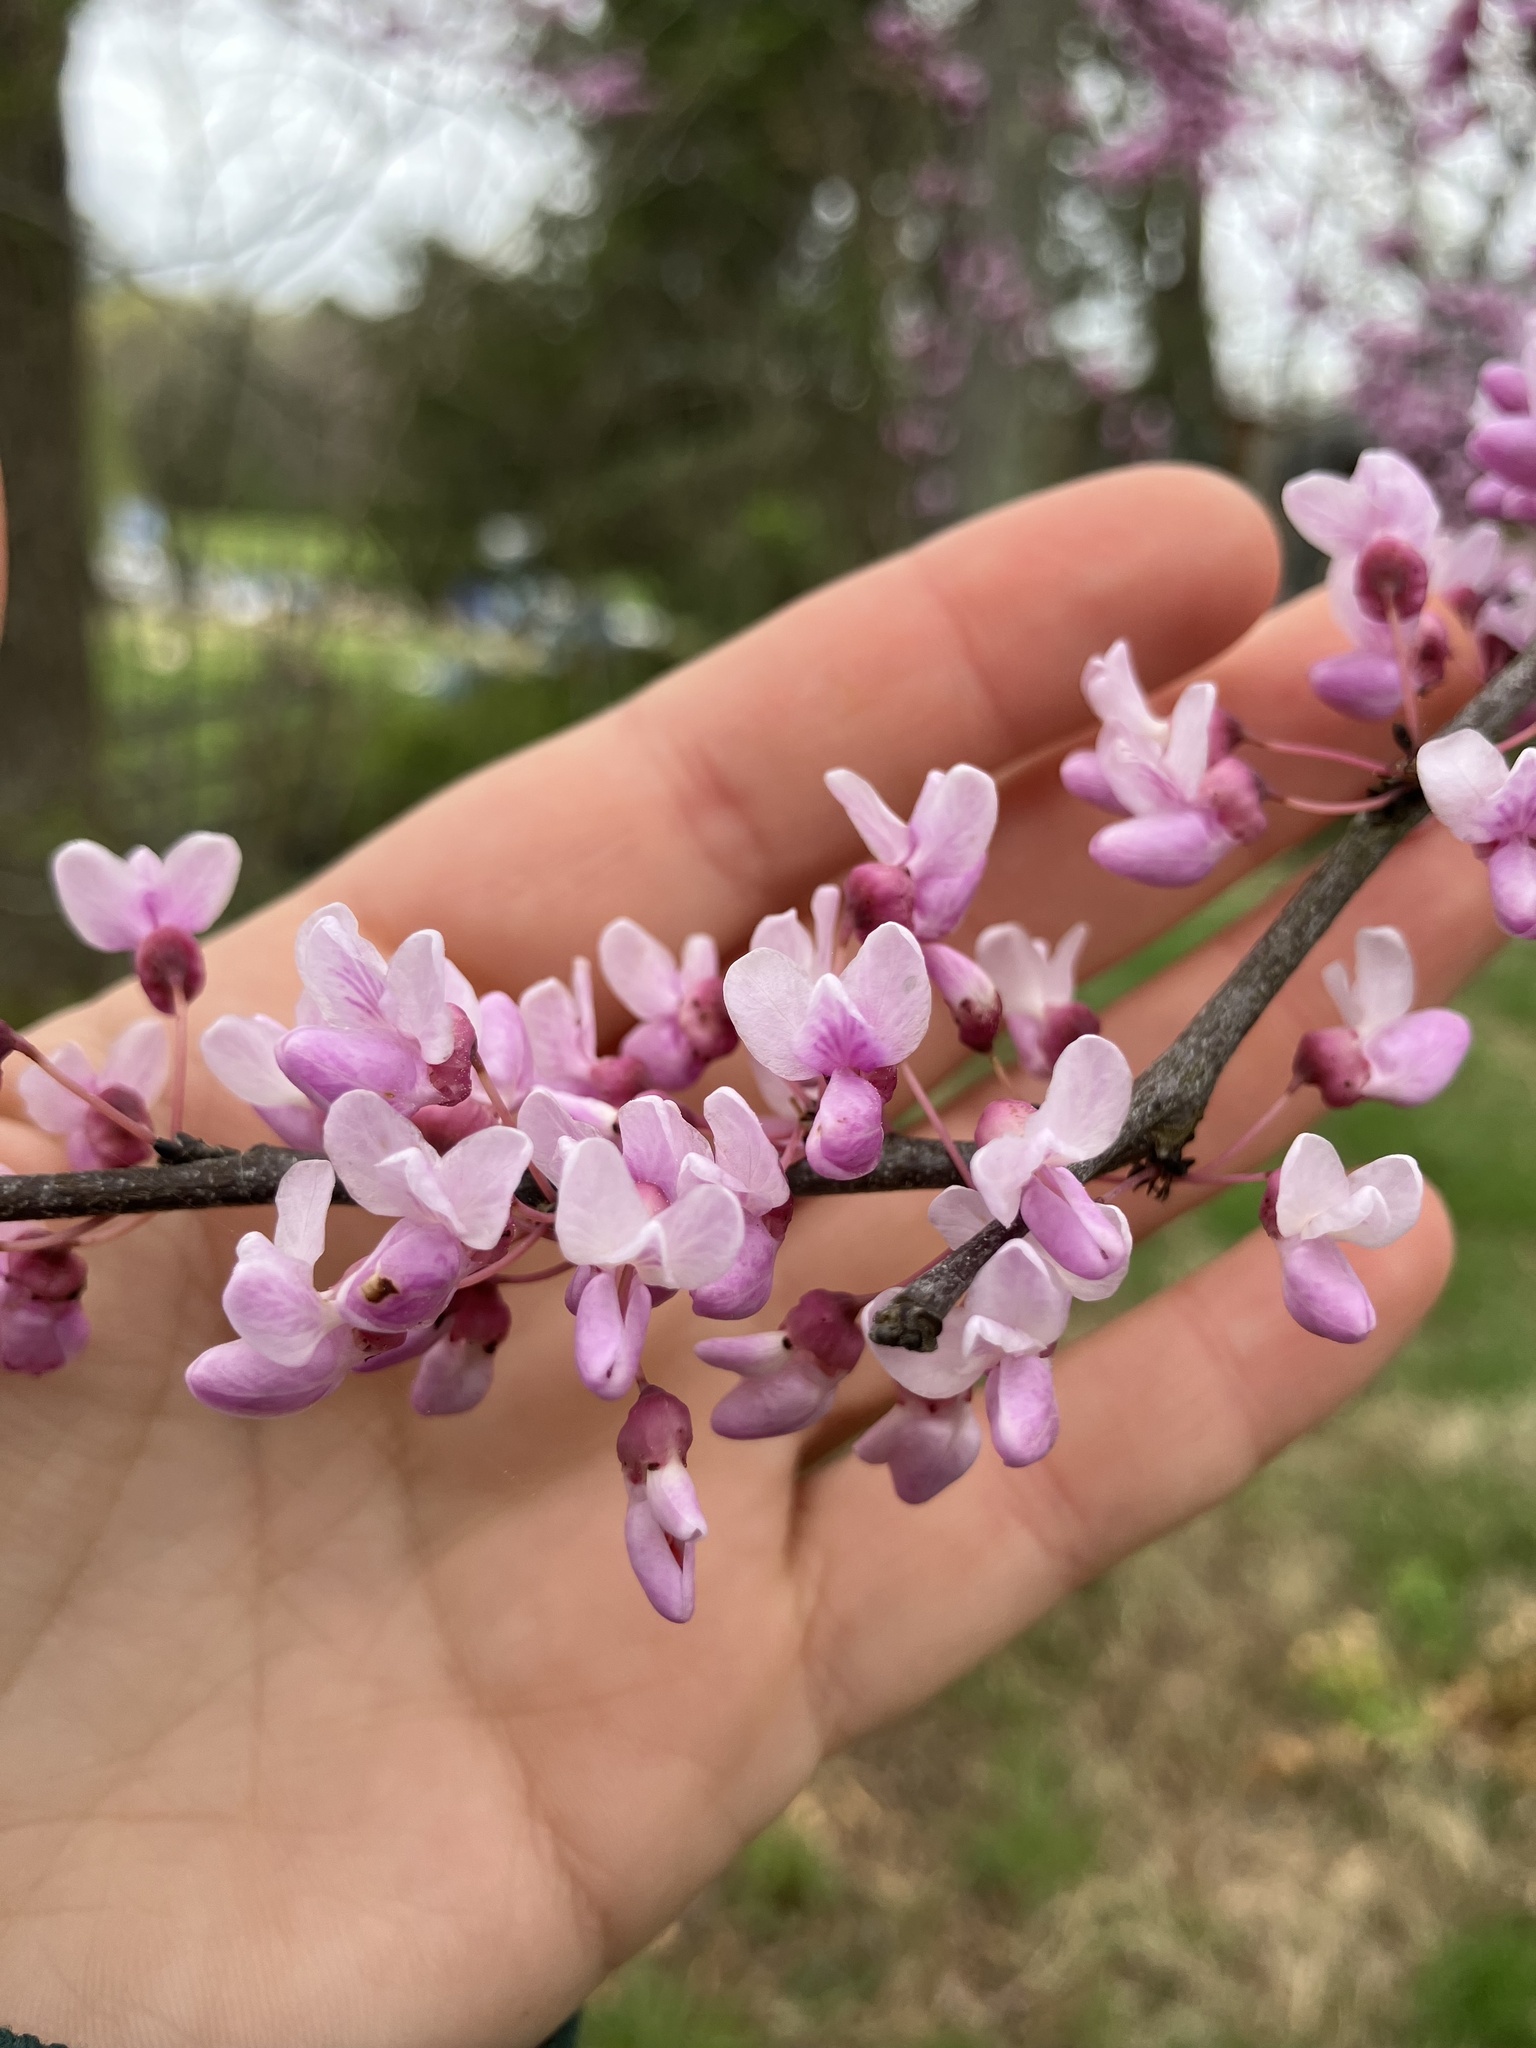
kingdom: Plantae
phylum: Tracheophyta
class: Magnoliopsida
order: Fabales
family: Fabaceae
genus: Cercis
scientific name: Cercis canadensis
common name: Eastern redbud
